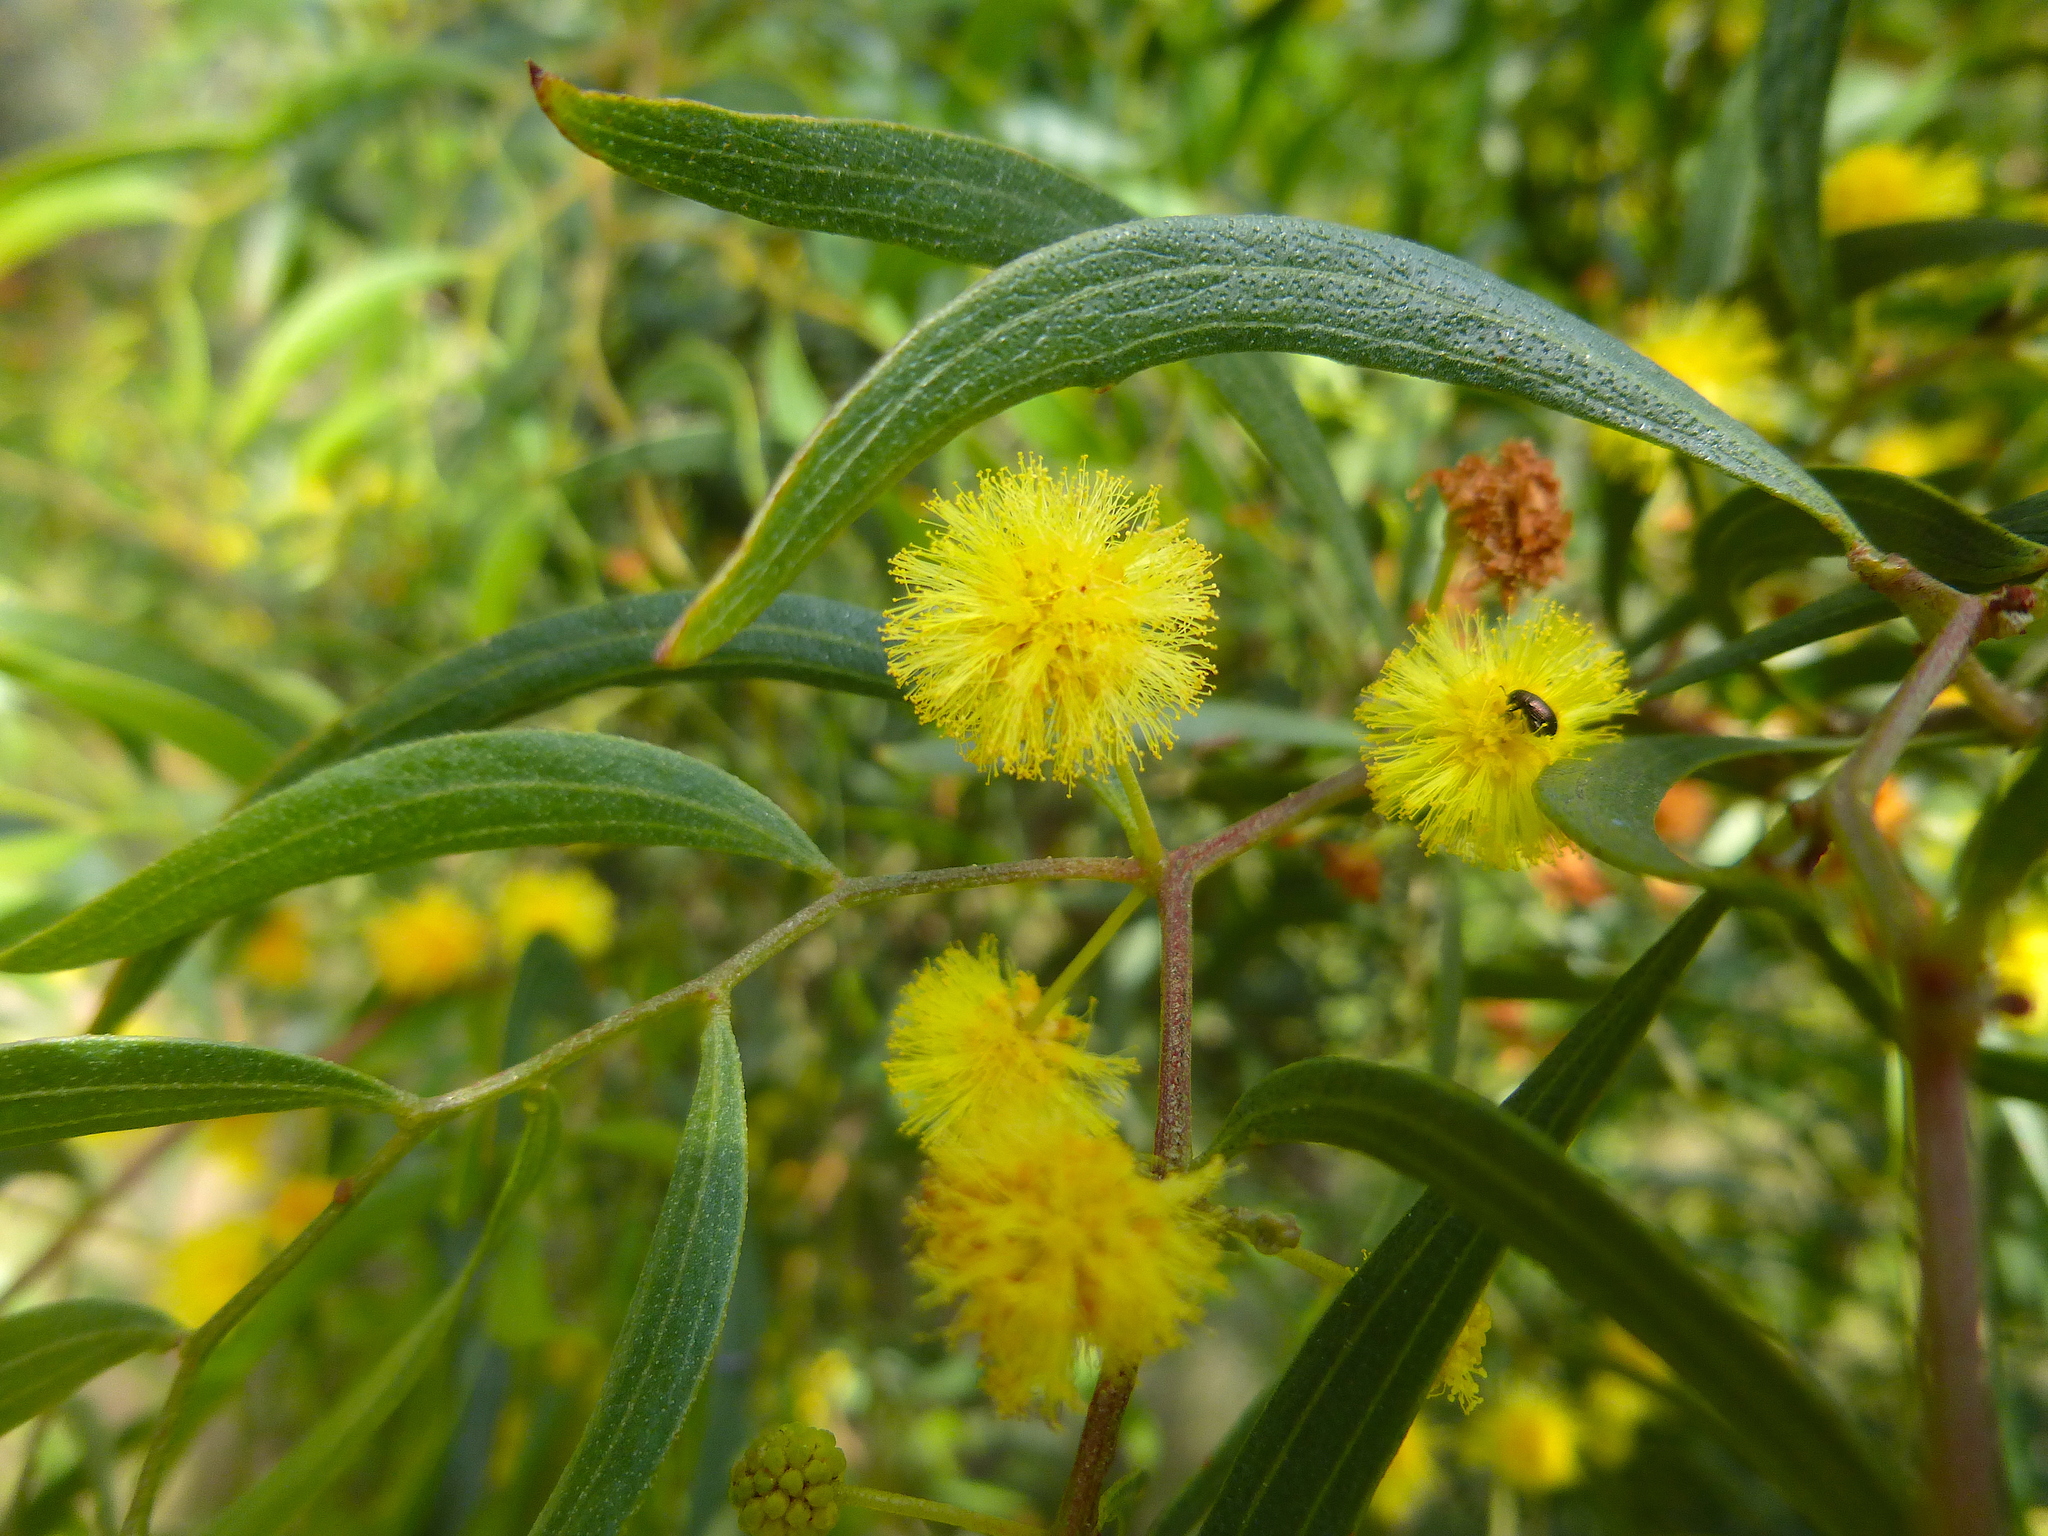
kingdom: Plantae
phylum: Tracheophyta
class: Magnoliopsida
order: Fabales
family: Fabaceae
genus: Acacia
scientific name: Acacia verniciflua
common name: Varnish wattle
